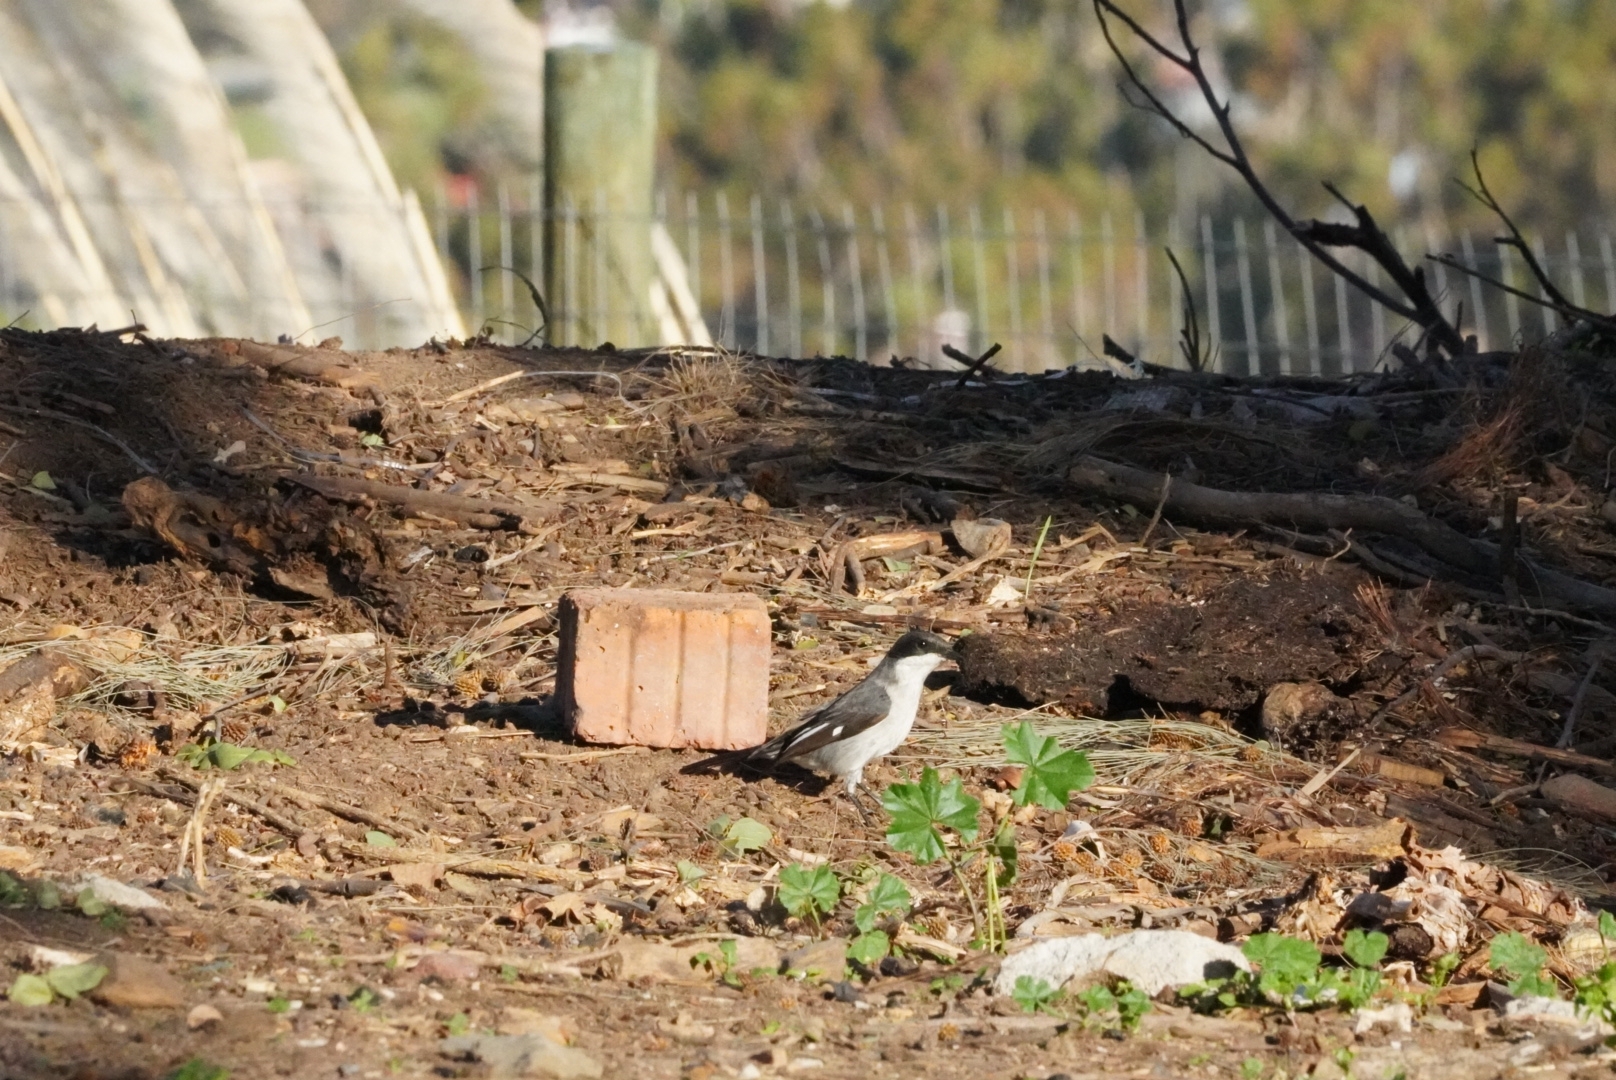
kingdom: Animalia
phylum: Chordata
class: Aves
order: Passeriformes
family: Muscicapidae
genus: Sigelus
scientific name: Sigelus silens
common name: Fiscal flycatcher
